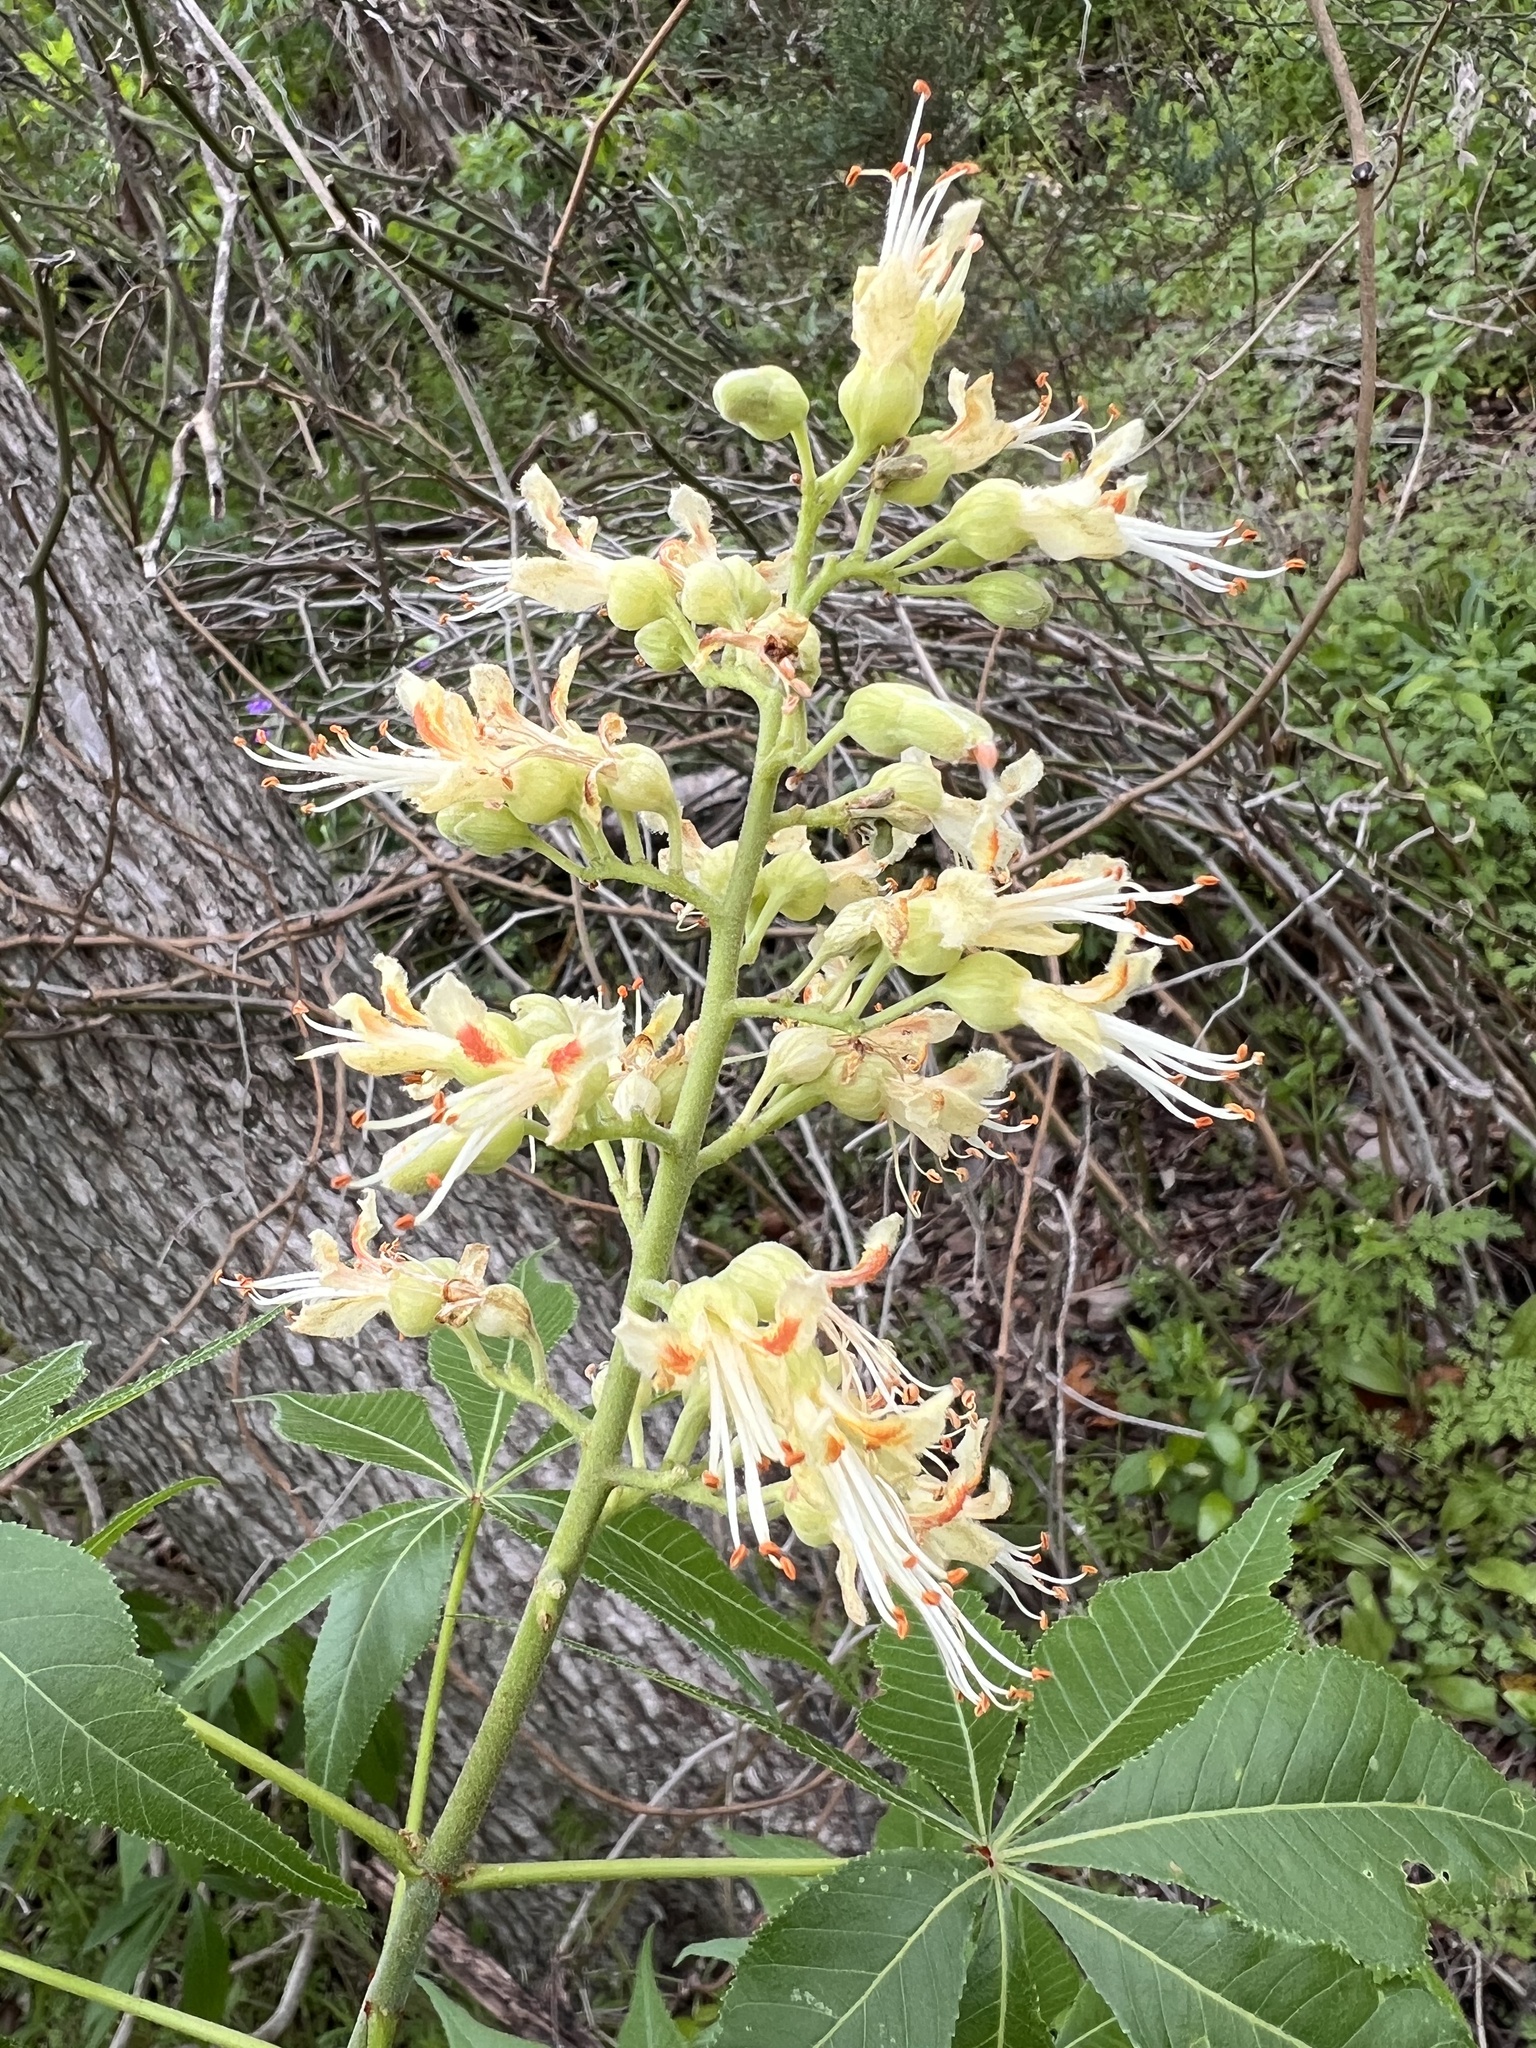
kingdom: Plantae
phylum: Tracheophyta
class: Magnoliopsida
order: Sapindales
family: Sapindaceae
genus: Aesculus
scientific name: Aesculus glabra
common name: Ohio buckeye
